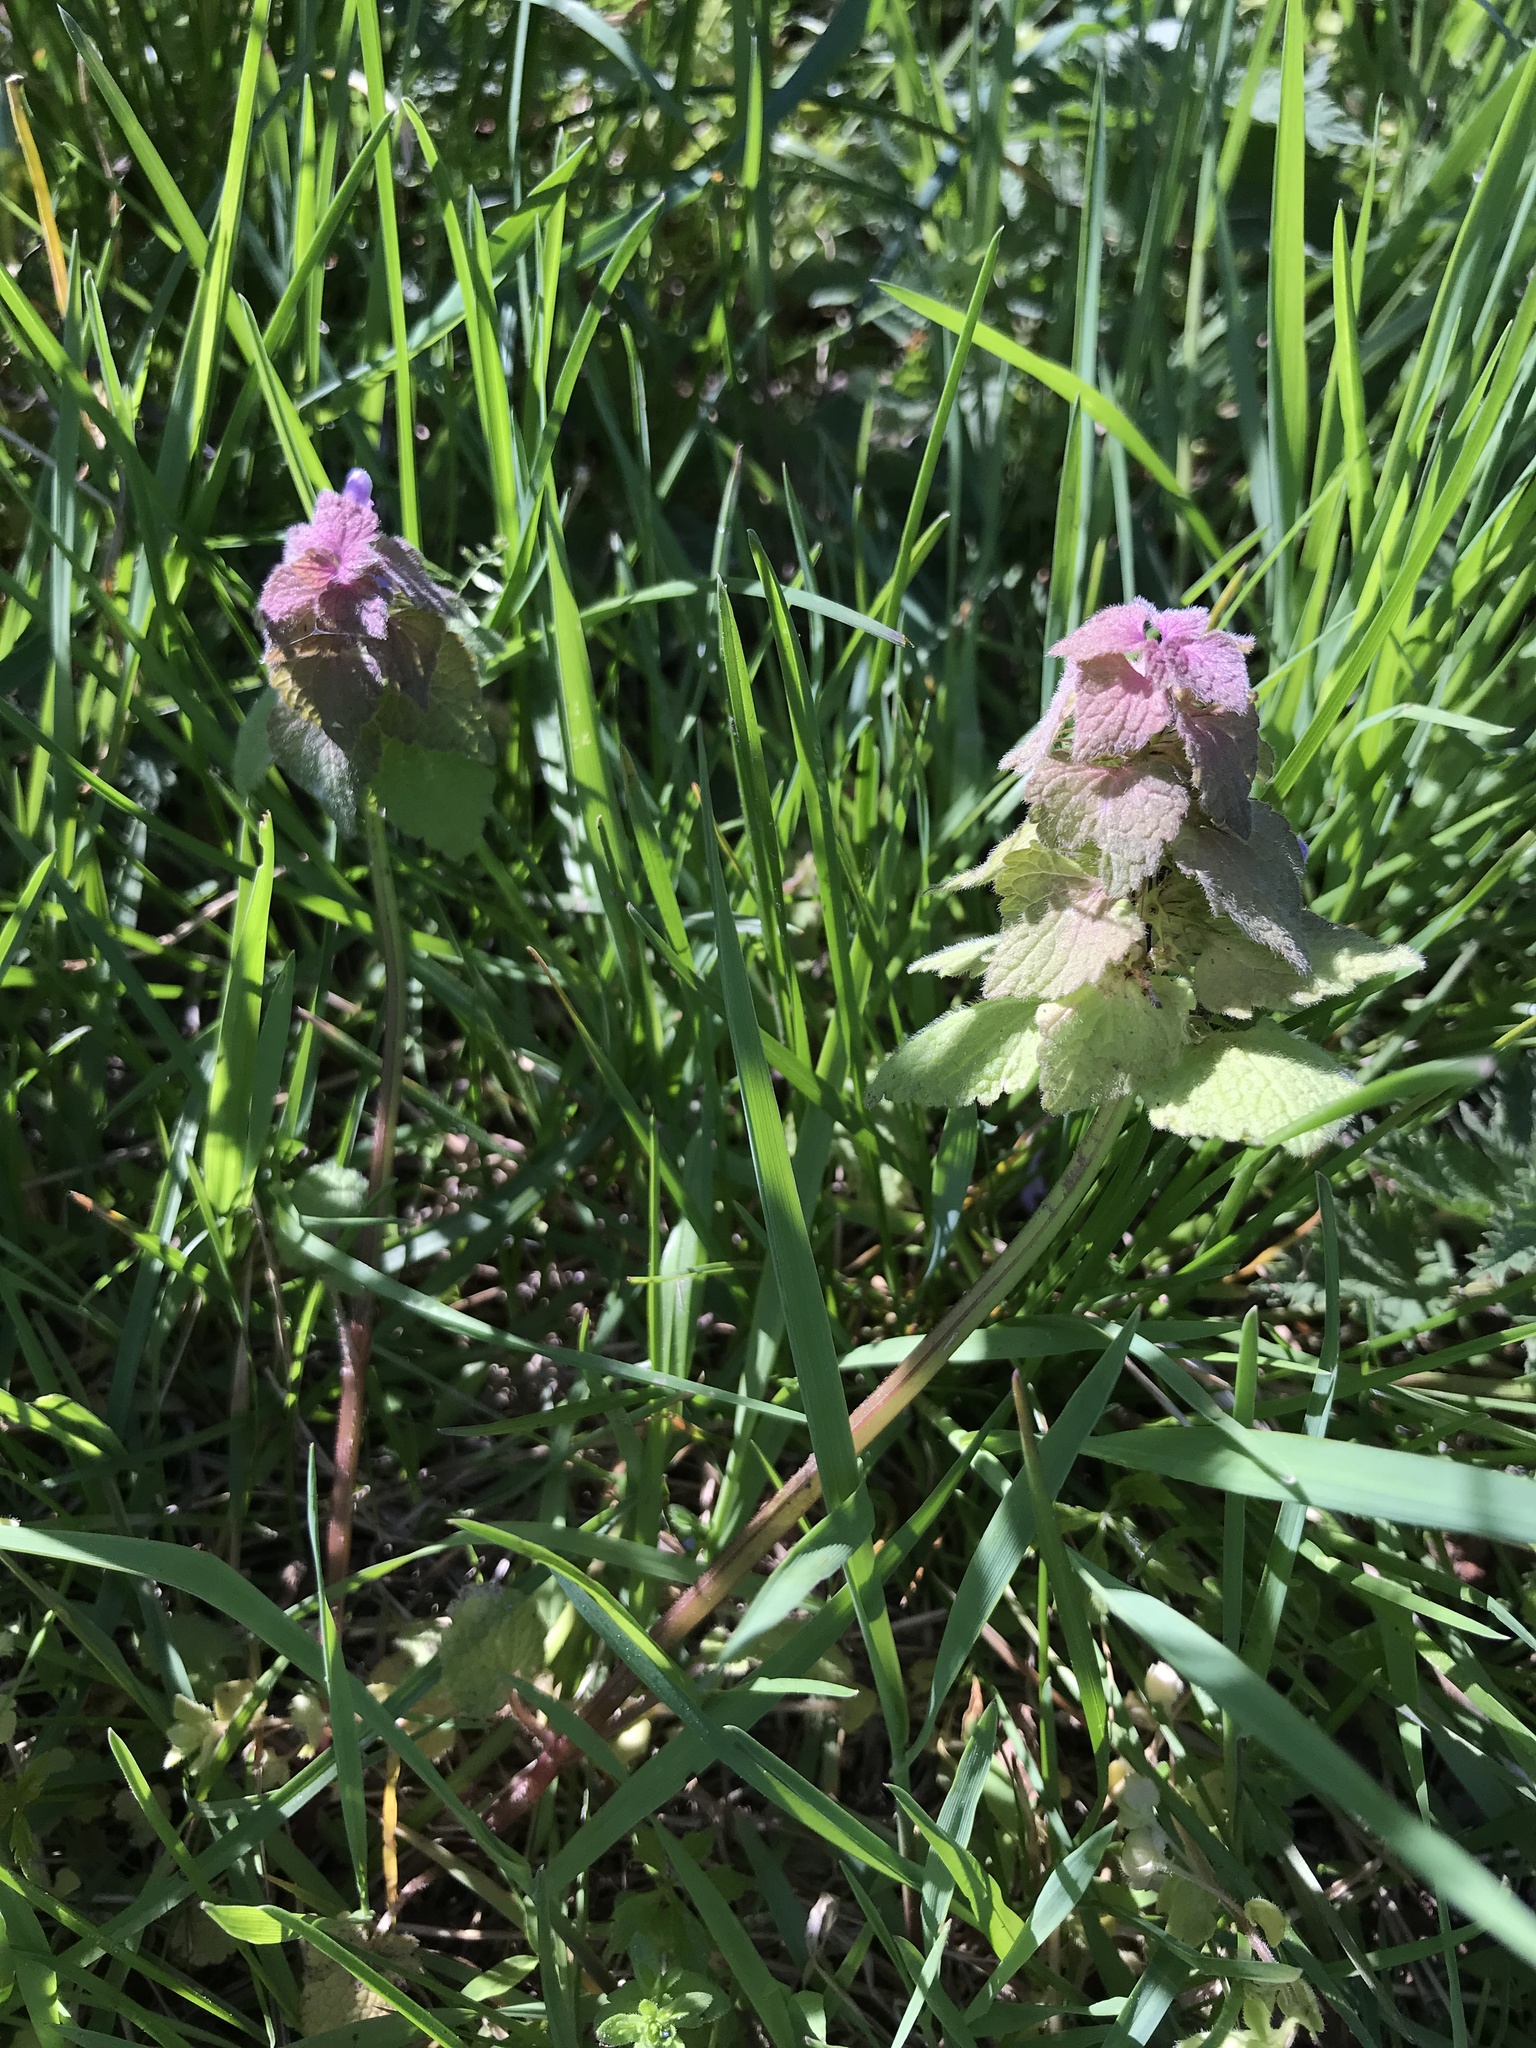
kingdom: Plantae
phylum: Tracheophyta
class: Magnoliopsida
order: Lamiales
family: Lamiaceae
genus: Lamium
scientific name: Lamium purpureum
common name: Red dead-nettle
